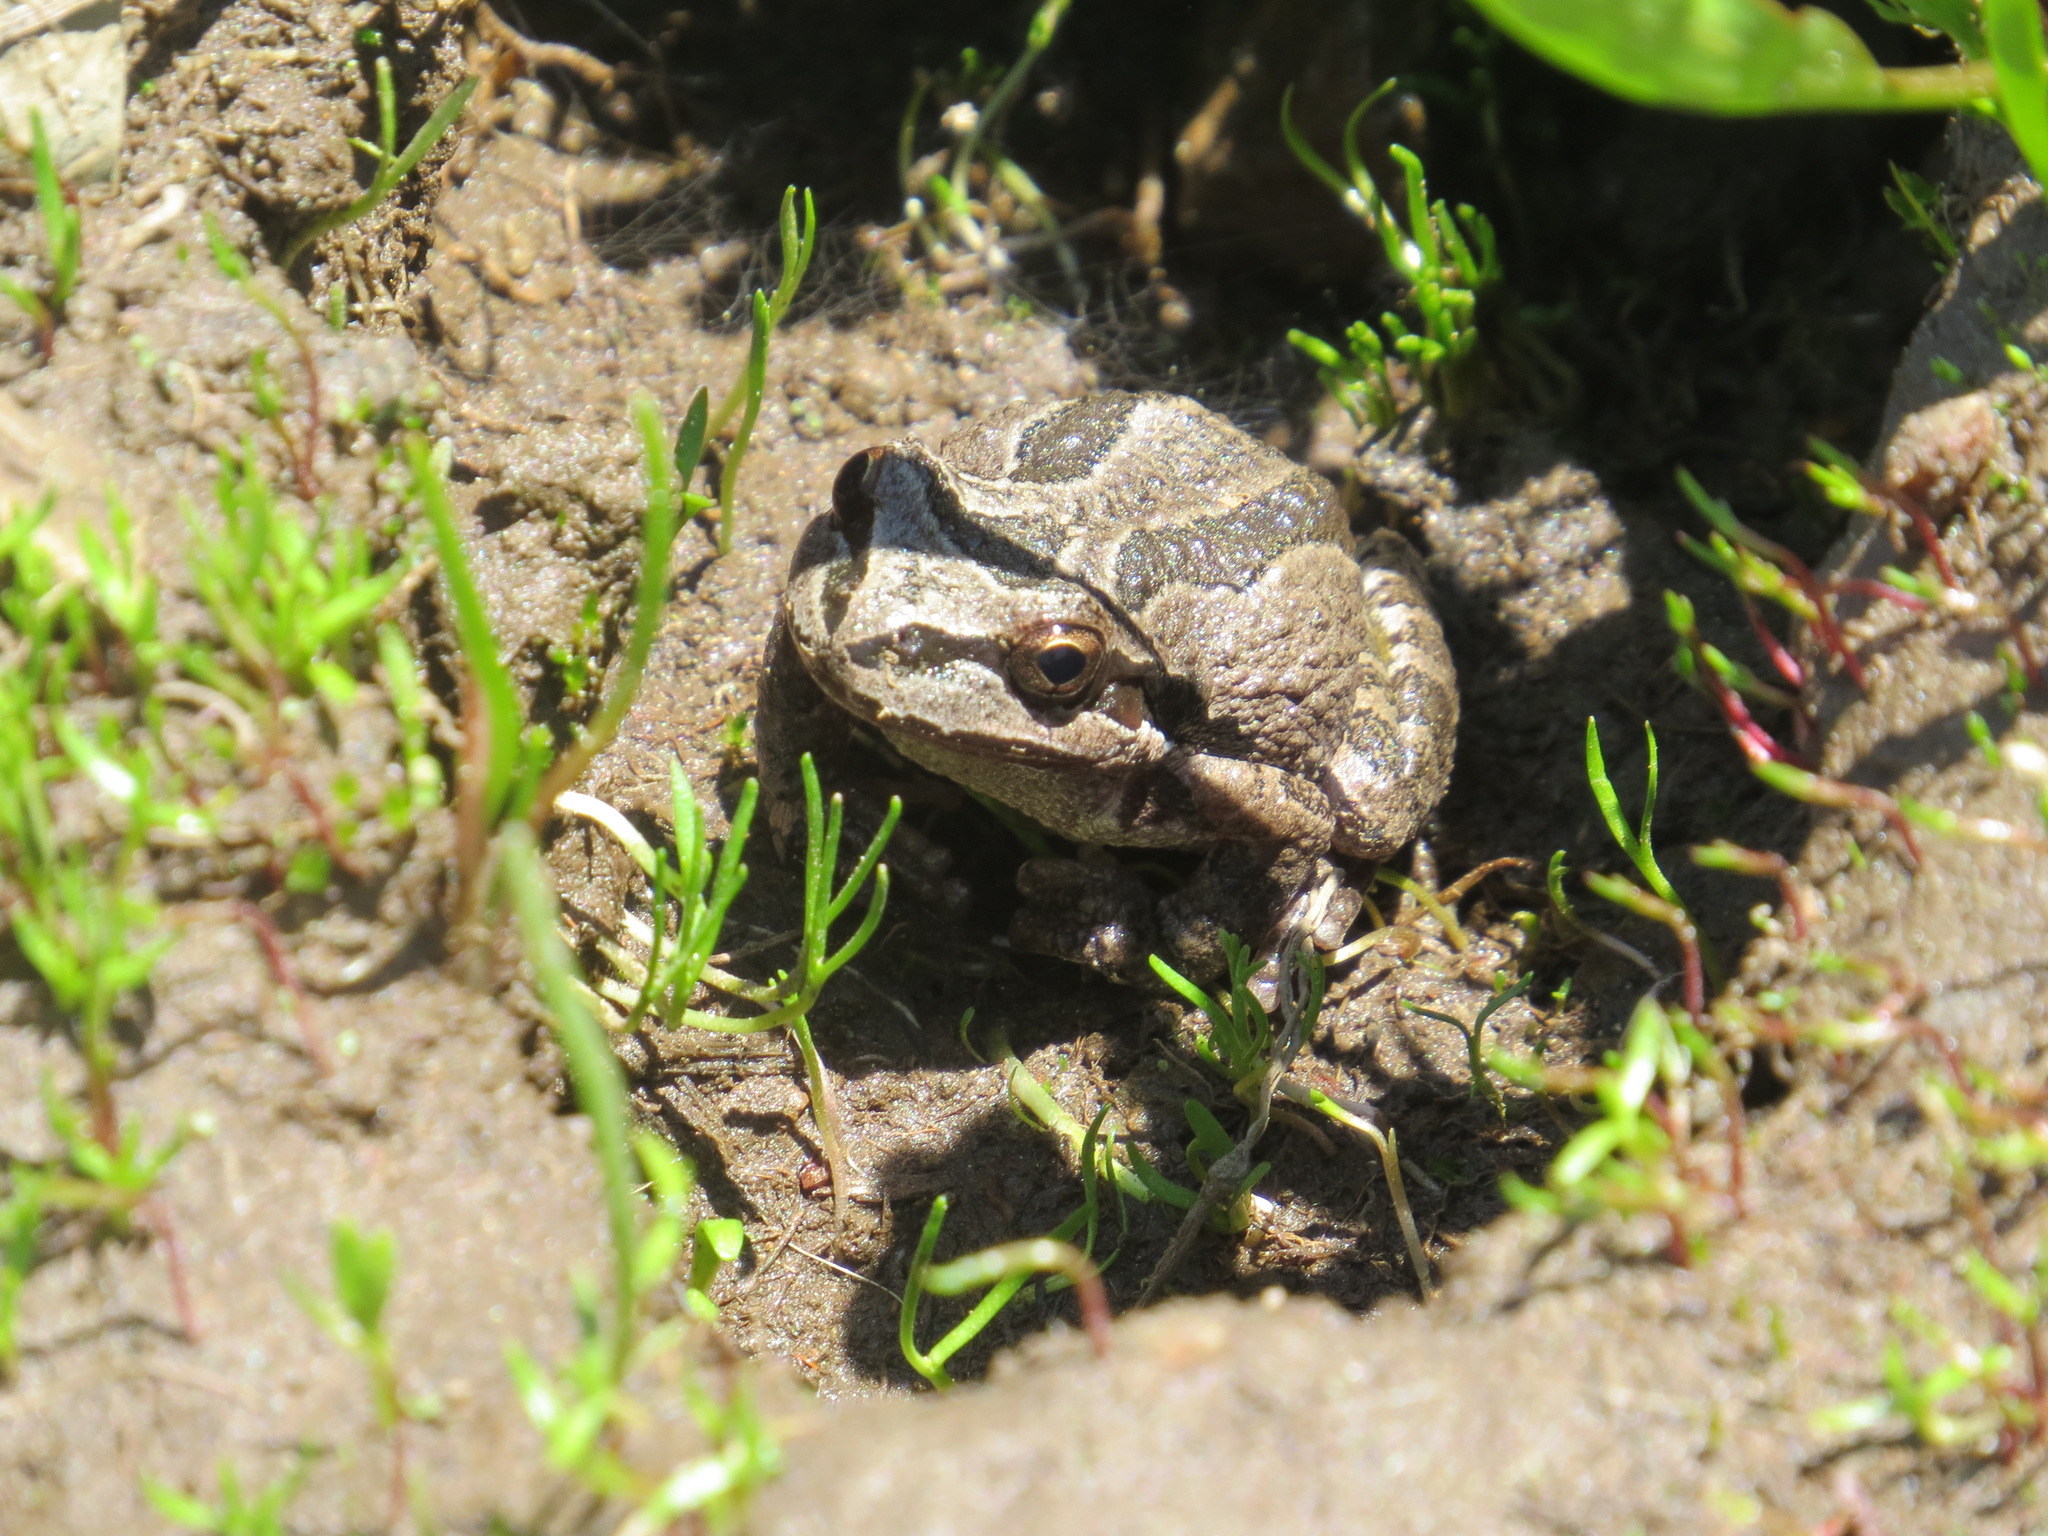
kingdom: Animalia
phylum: Chordata
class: Amphibia
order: Anura
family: Hylidae
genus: Pseudacris
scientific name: Pseudacris regilla
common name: Pacific chorus frog
